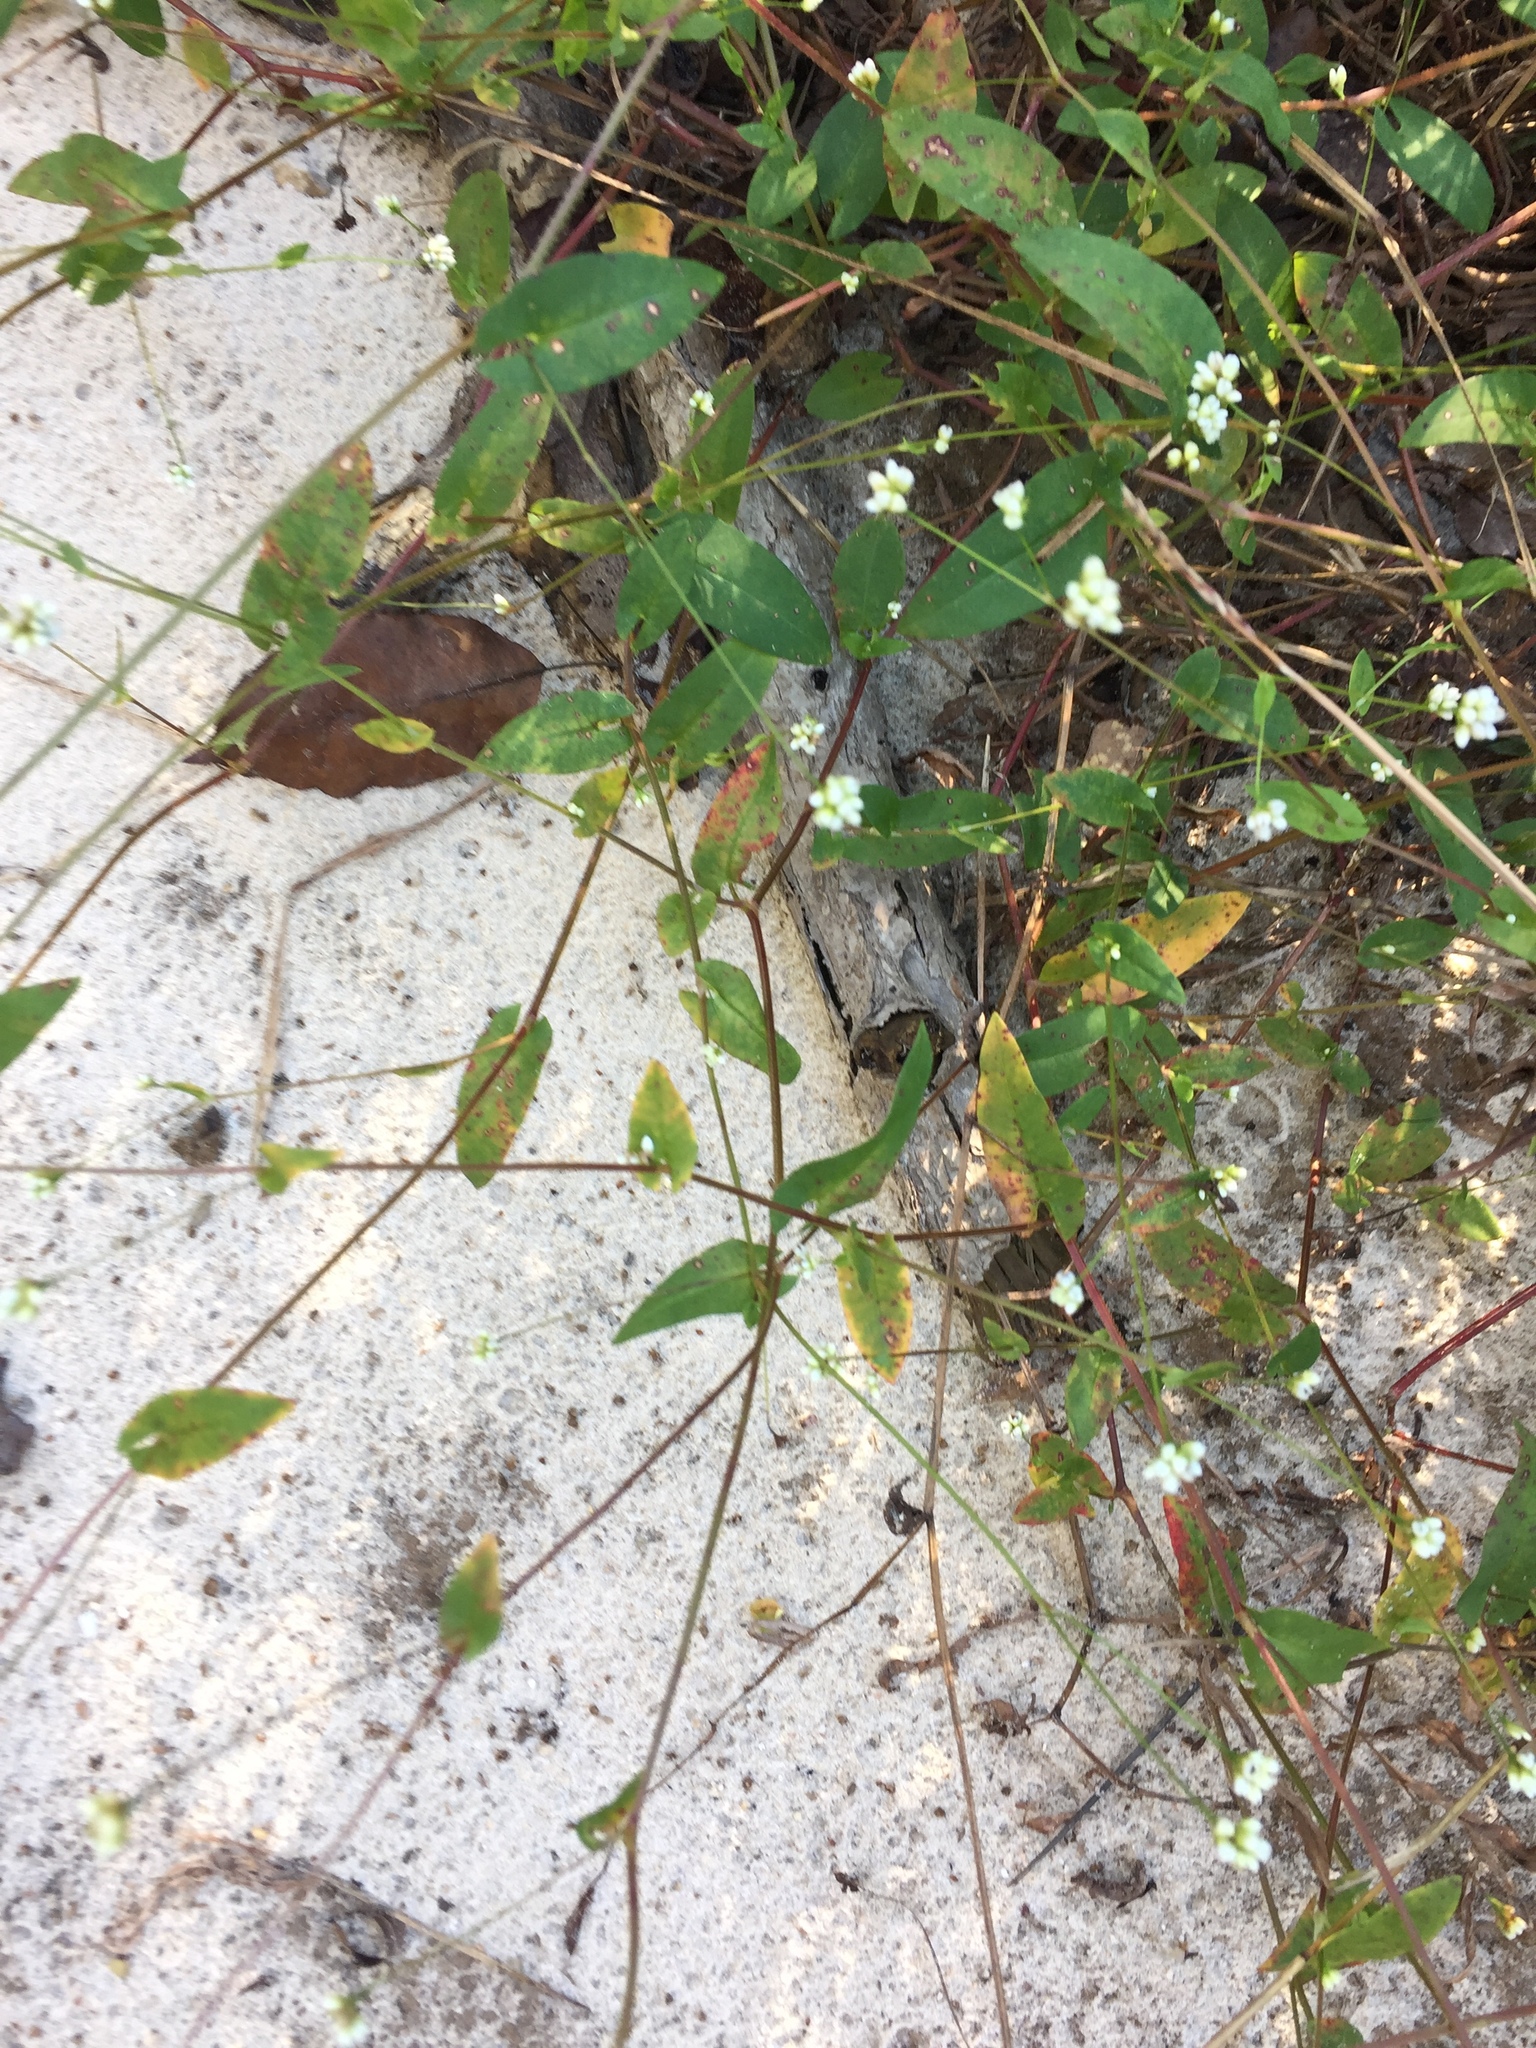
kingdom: Plantae
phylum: Tracheophyta
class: Magnoliopsida
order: Caryophyllales
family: Polygonaceae
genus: Persicaria
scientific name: Persicaria sagittata
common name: American tearthumb
